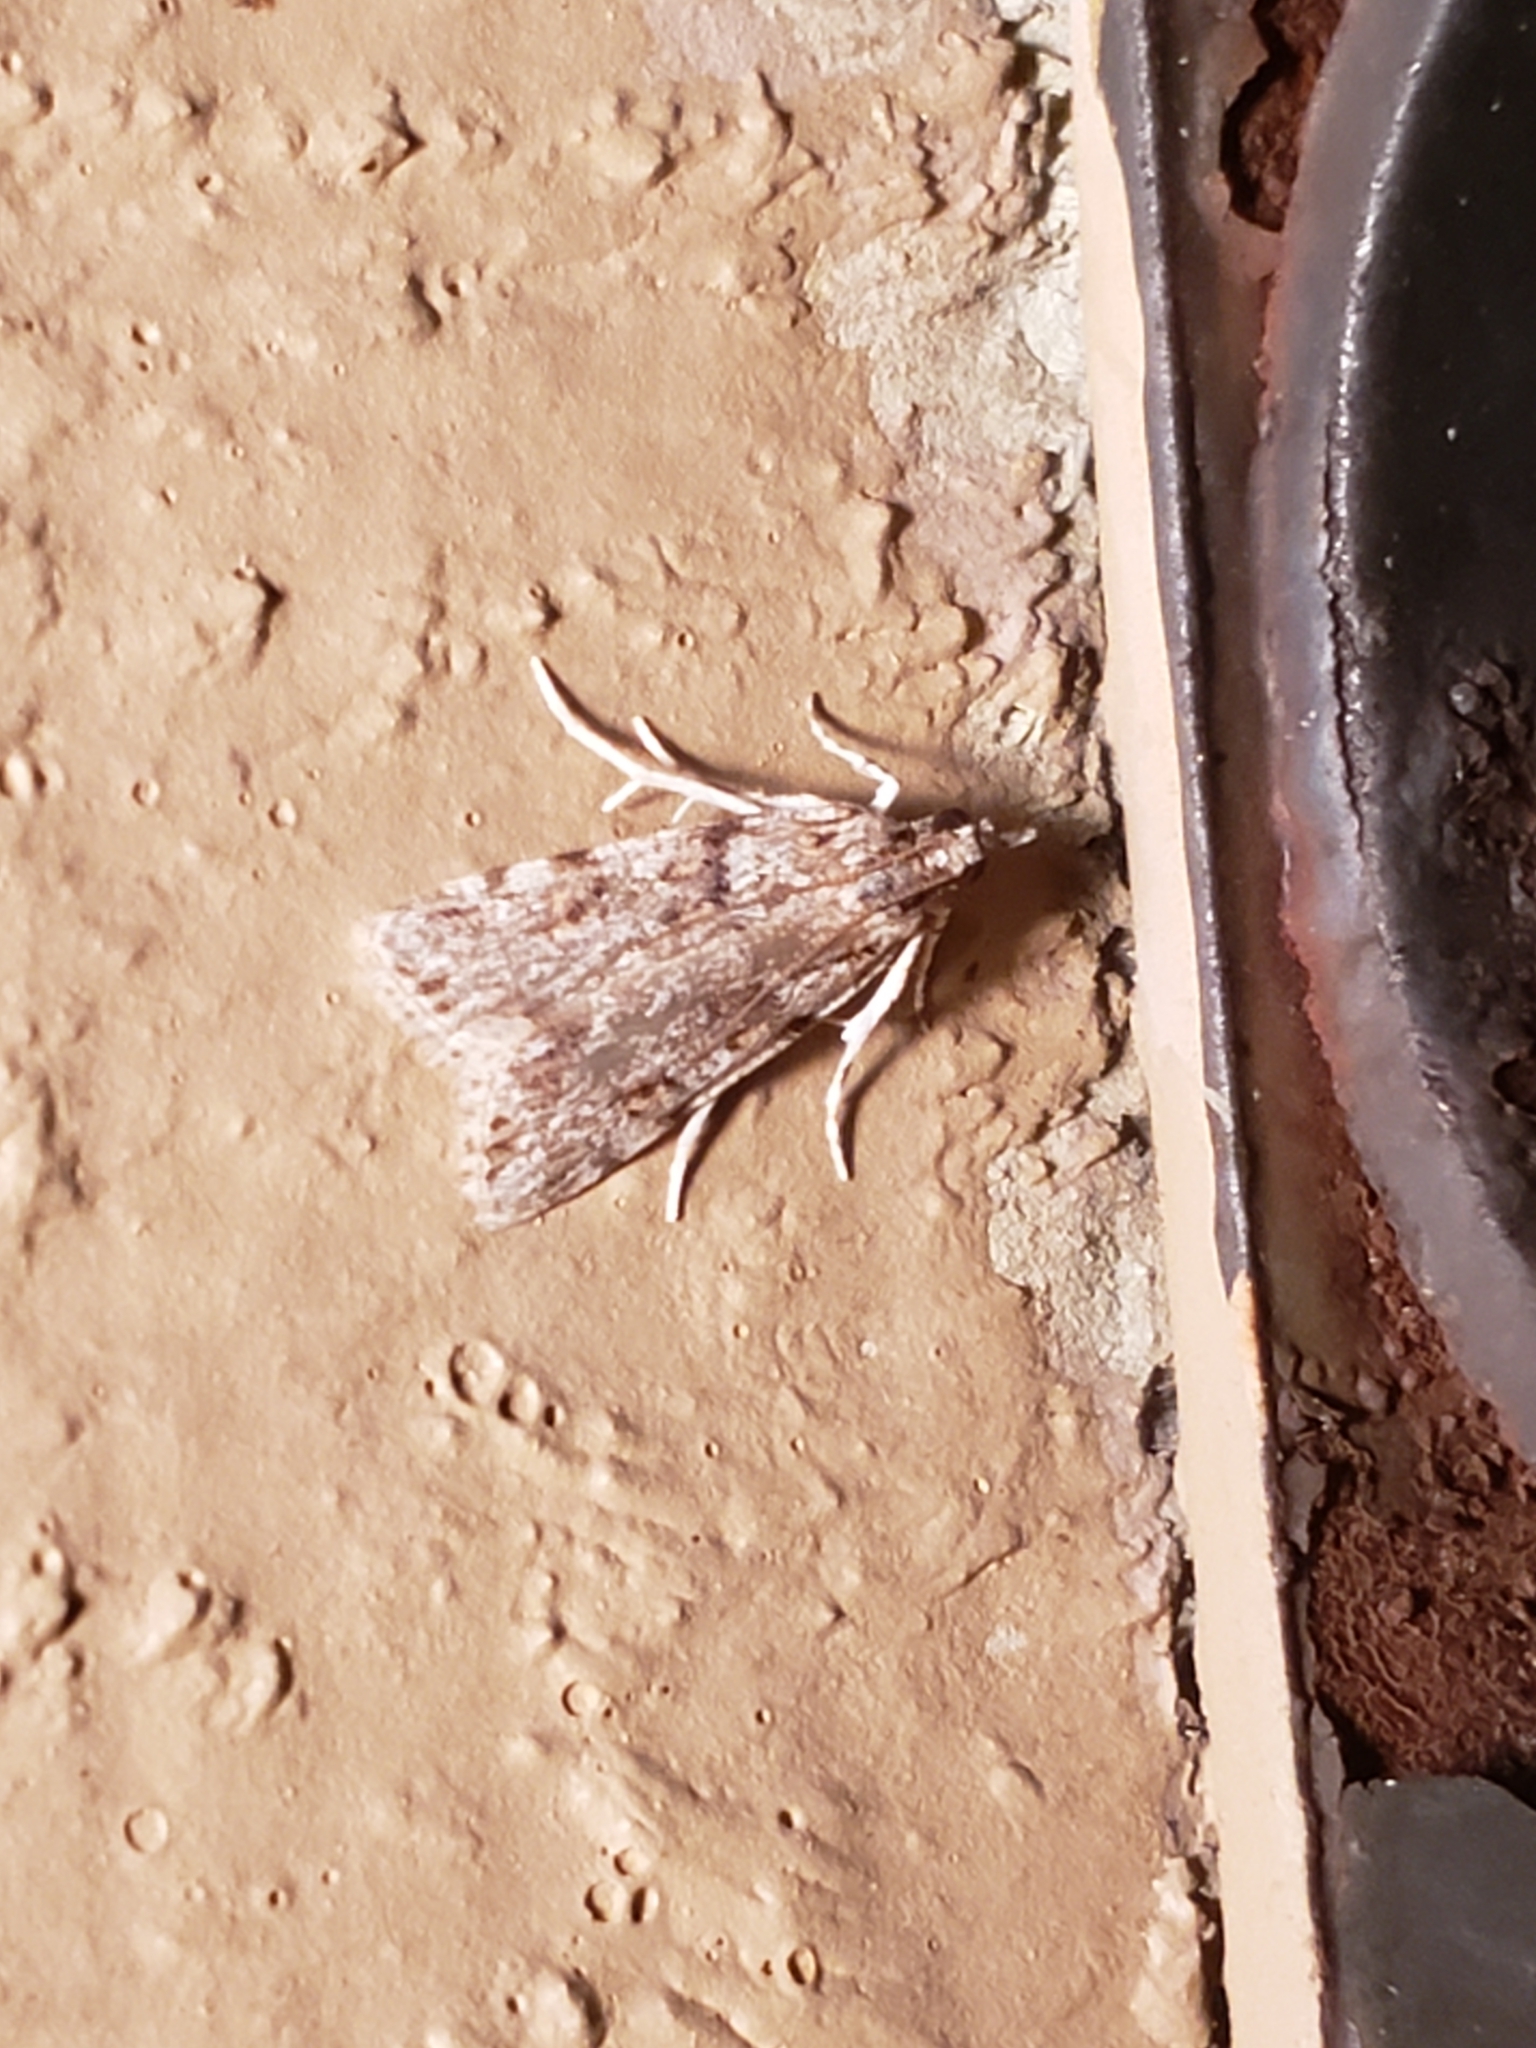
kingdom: Animalia
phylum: Arthropoda
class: Insecta
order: Lepidoptera
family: Crambidae
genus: Scoparia
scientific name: Scoparia biplagialis
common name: Double-striped scoparia moth
